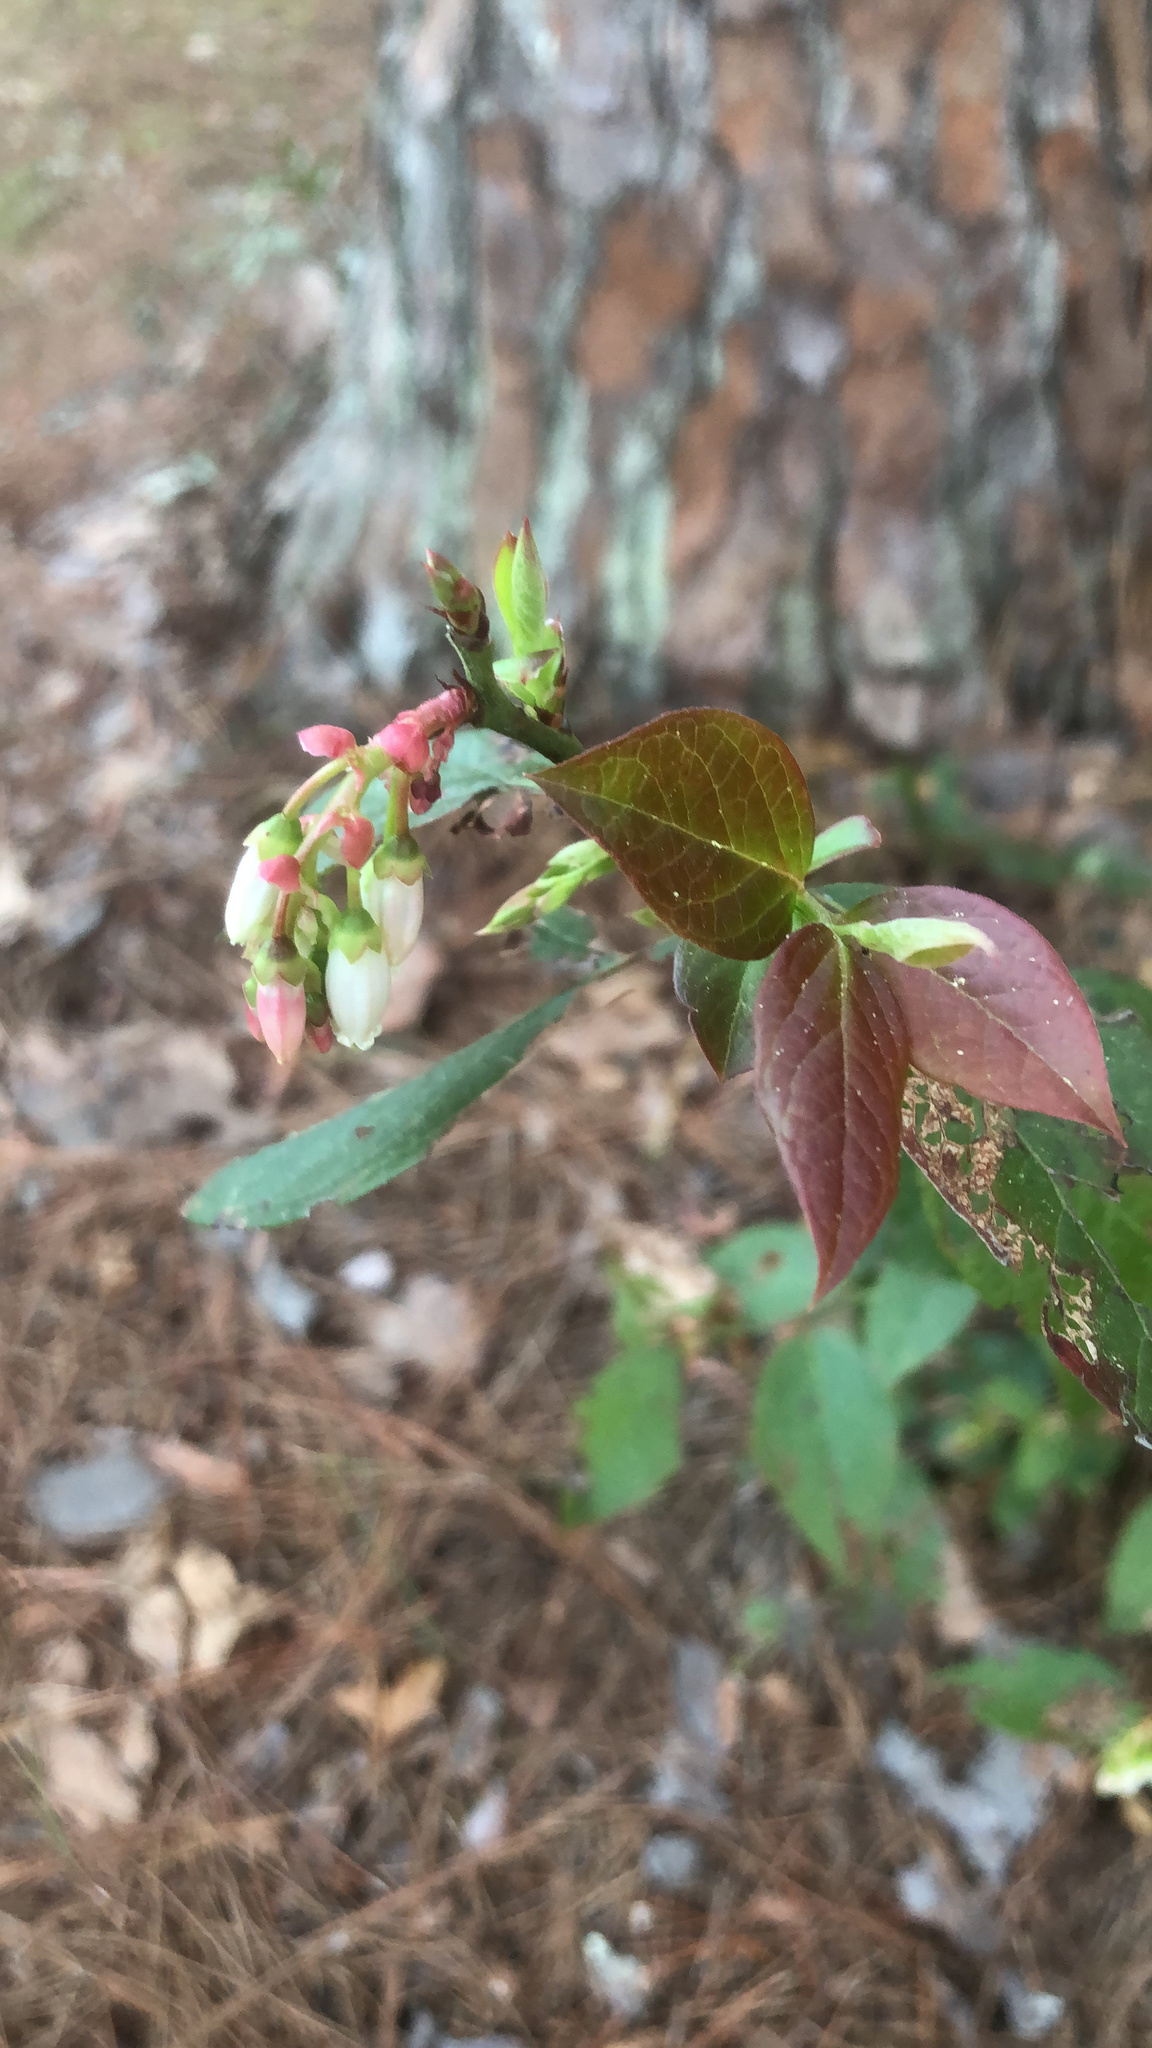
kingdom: Plantae
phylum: Tracheophyta
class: Magnoliopsida
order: Ericales
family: Ericaceae
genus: Vaccinium
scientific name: Vaccinium corymbosum
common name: Blueberry
